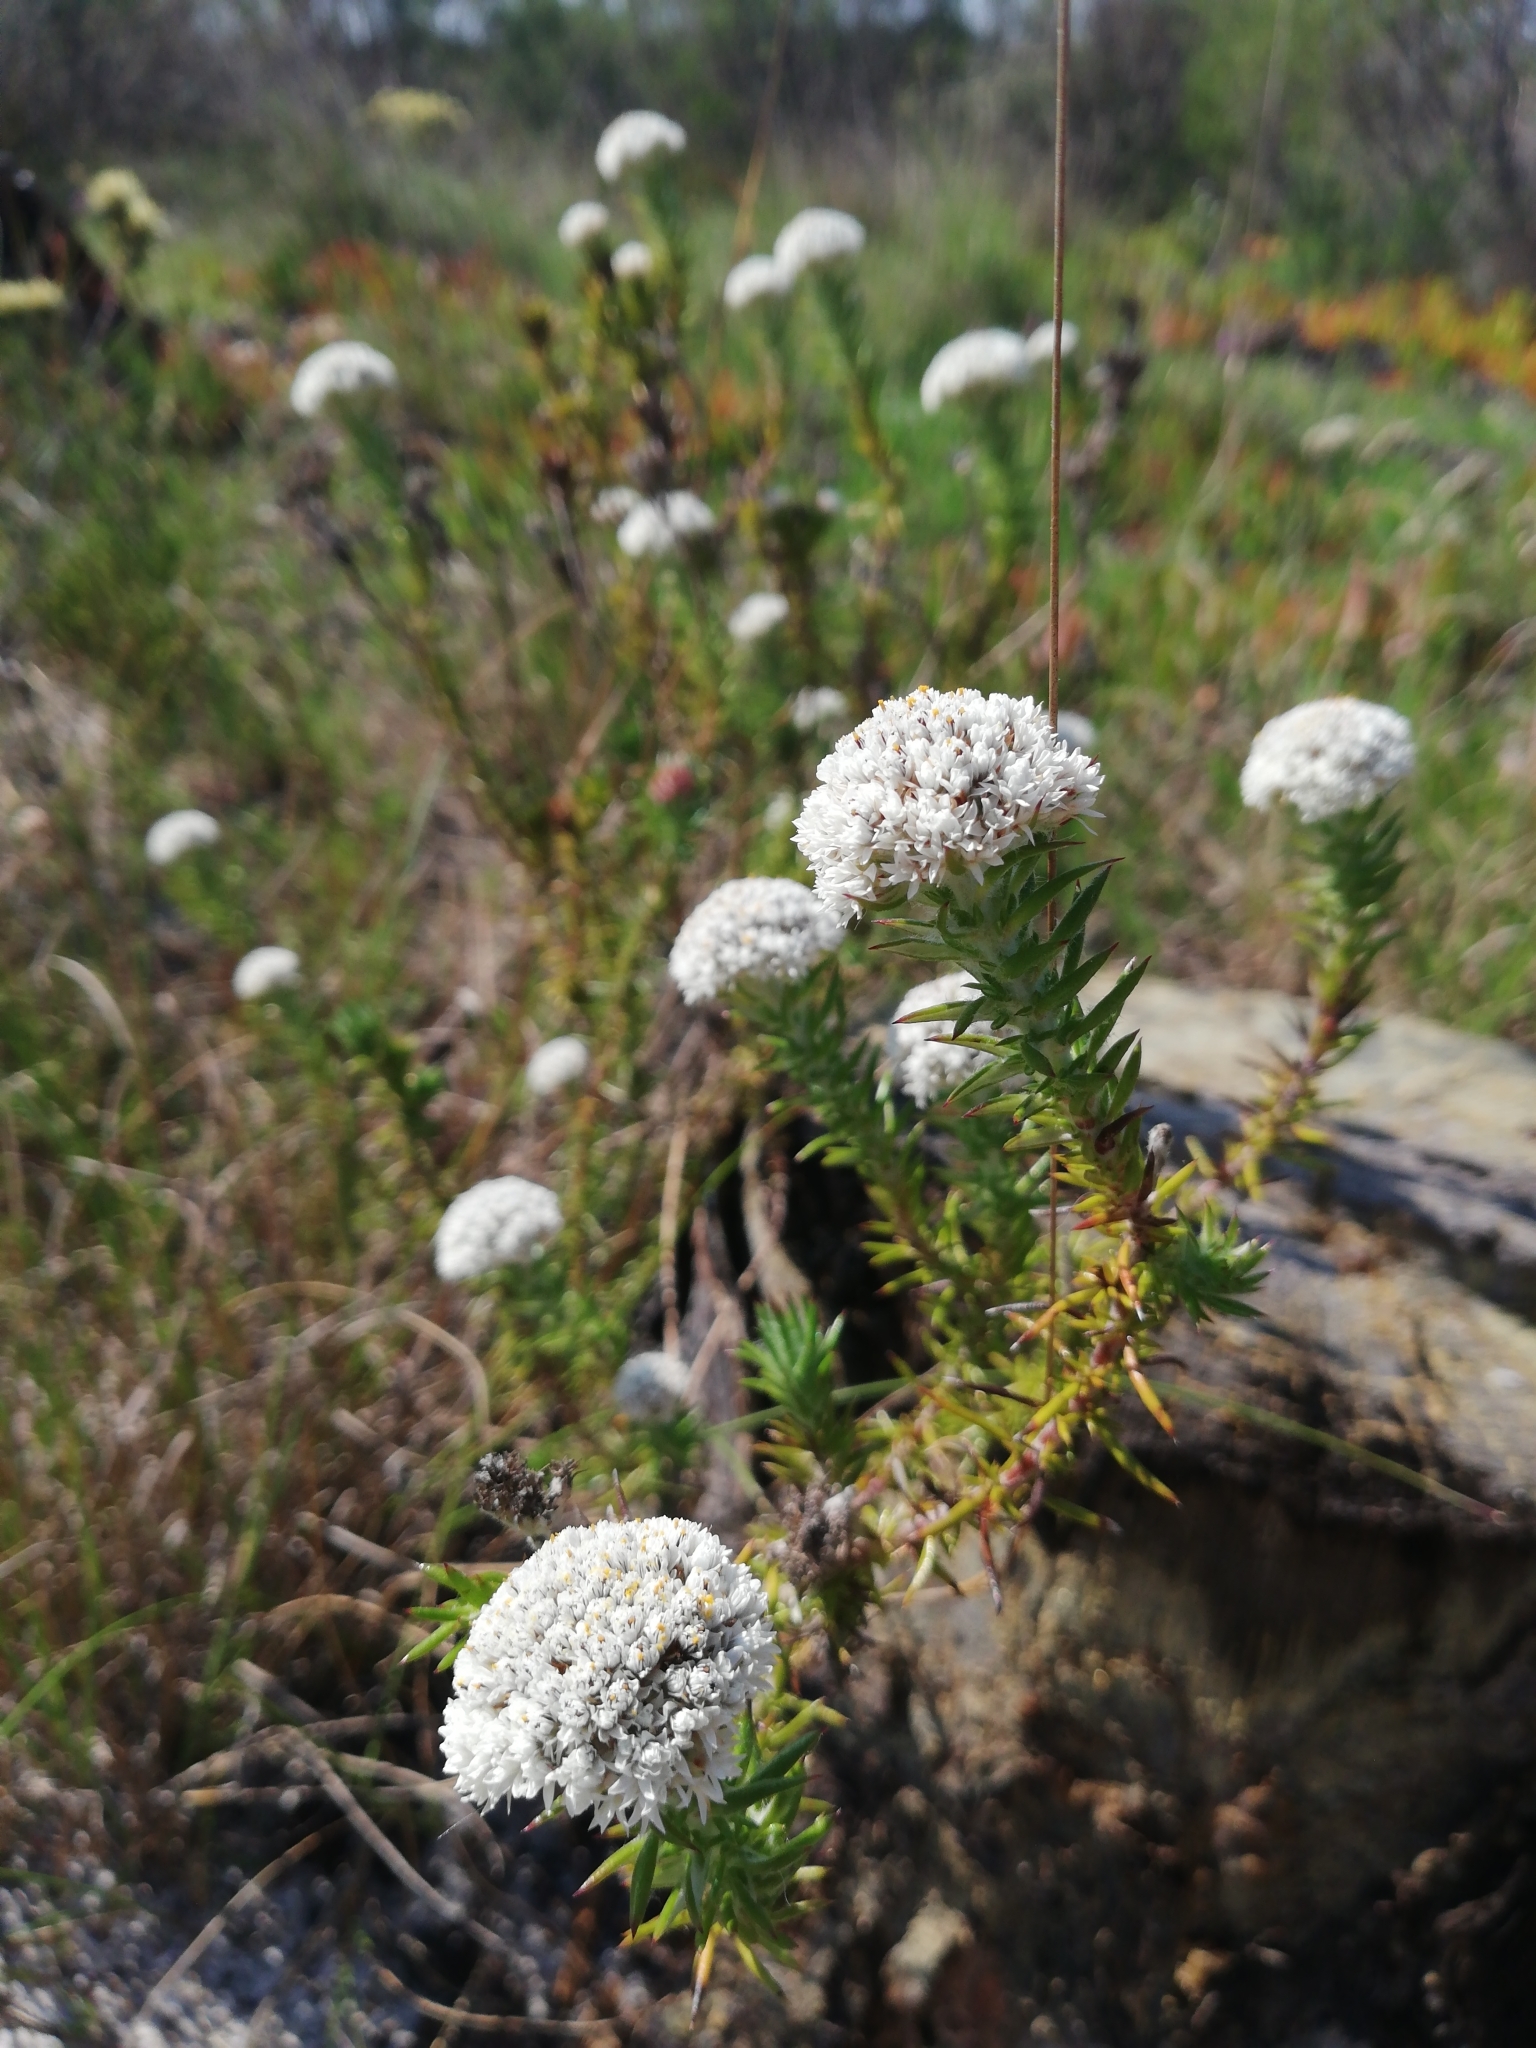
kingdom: Plantae
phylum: Tracheophyta
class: Magnoliopsida
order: Asterales
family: Asteraceae
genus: Metalasia
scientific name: Metalasia pulchella
